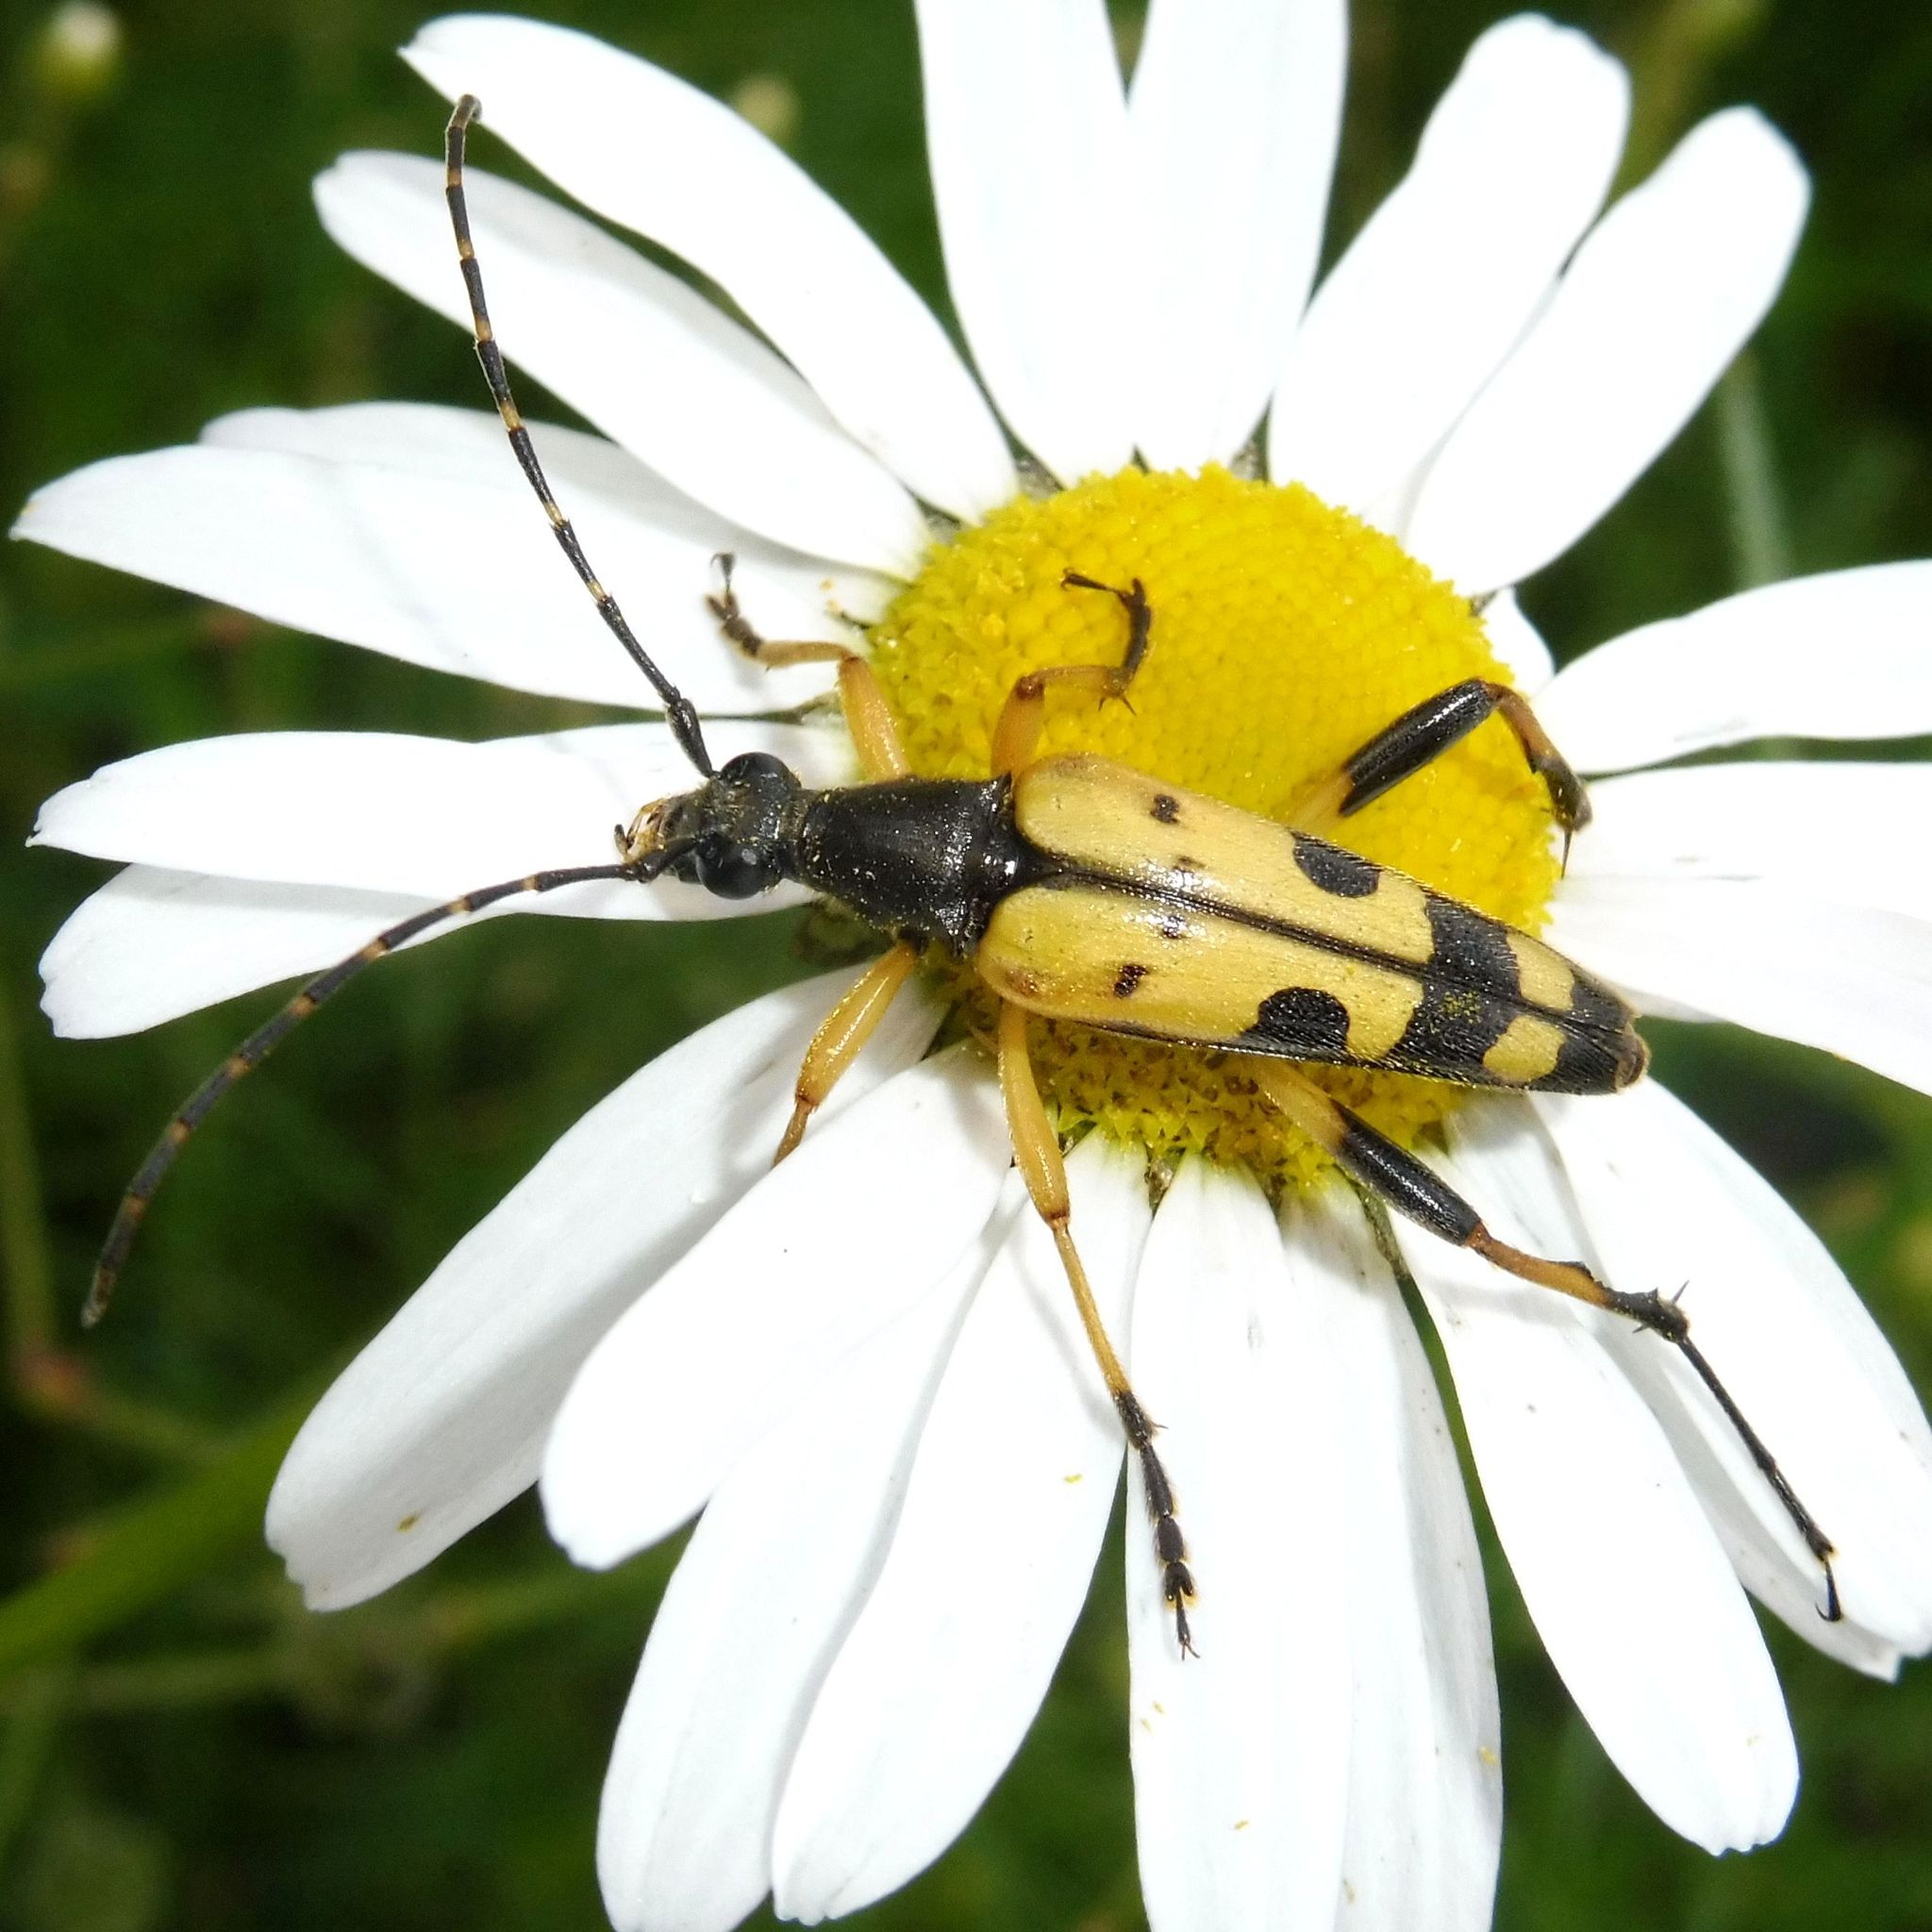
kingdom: Animalia
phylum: Arthropoda
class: Insecta
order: Coleoptera
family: Cerambycidae
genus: Rutpela
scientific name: Rutpela maculata
